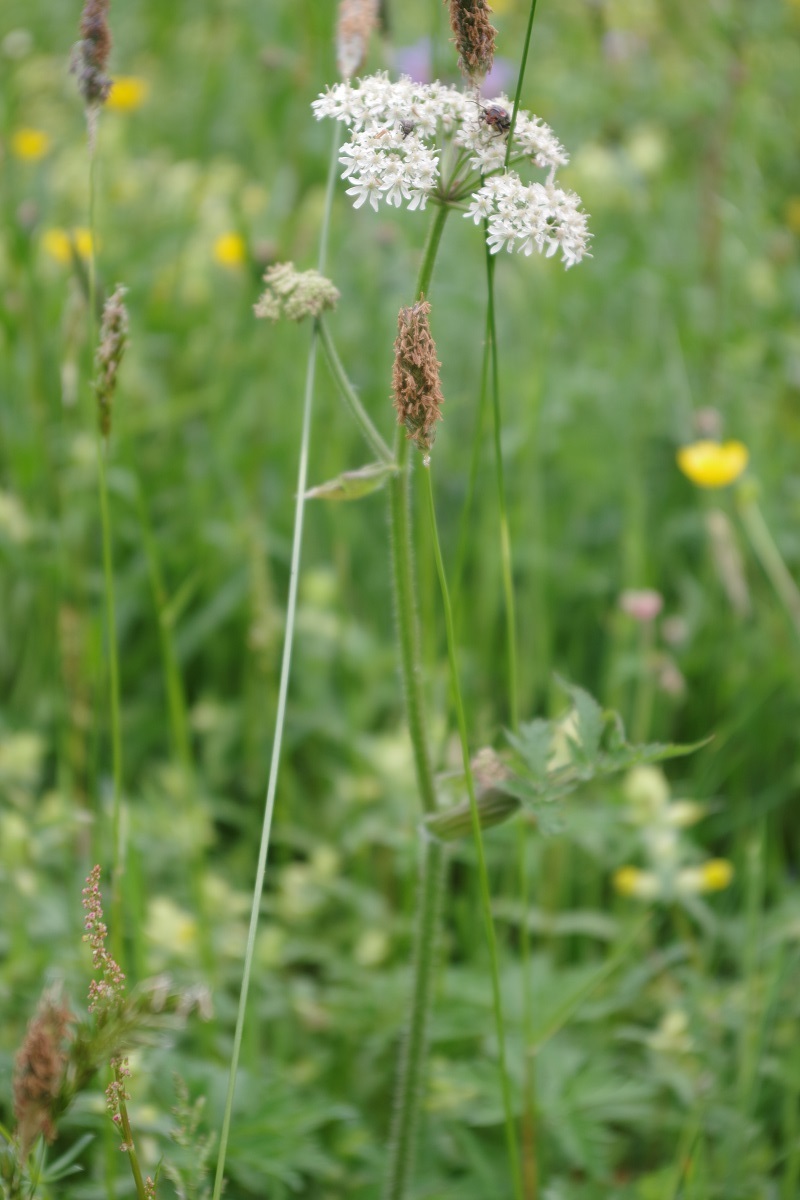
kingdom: Plantae
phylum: Tracheophyta
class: Magnoliopsida
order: Apiales
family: Apiaceae
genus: Heracleum
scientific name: Heracleum sphondylium
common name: Hogweed
